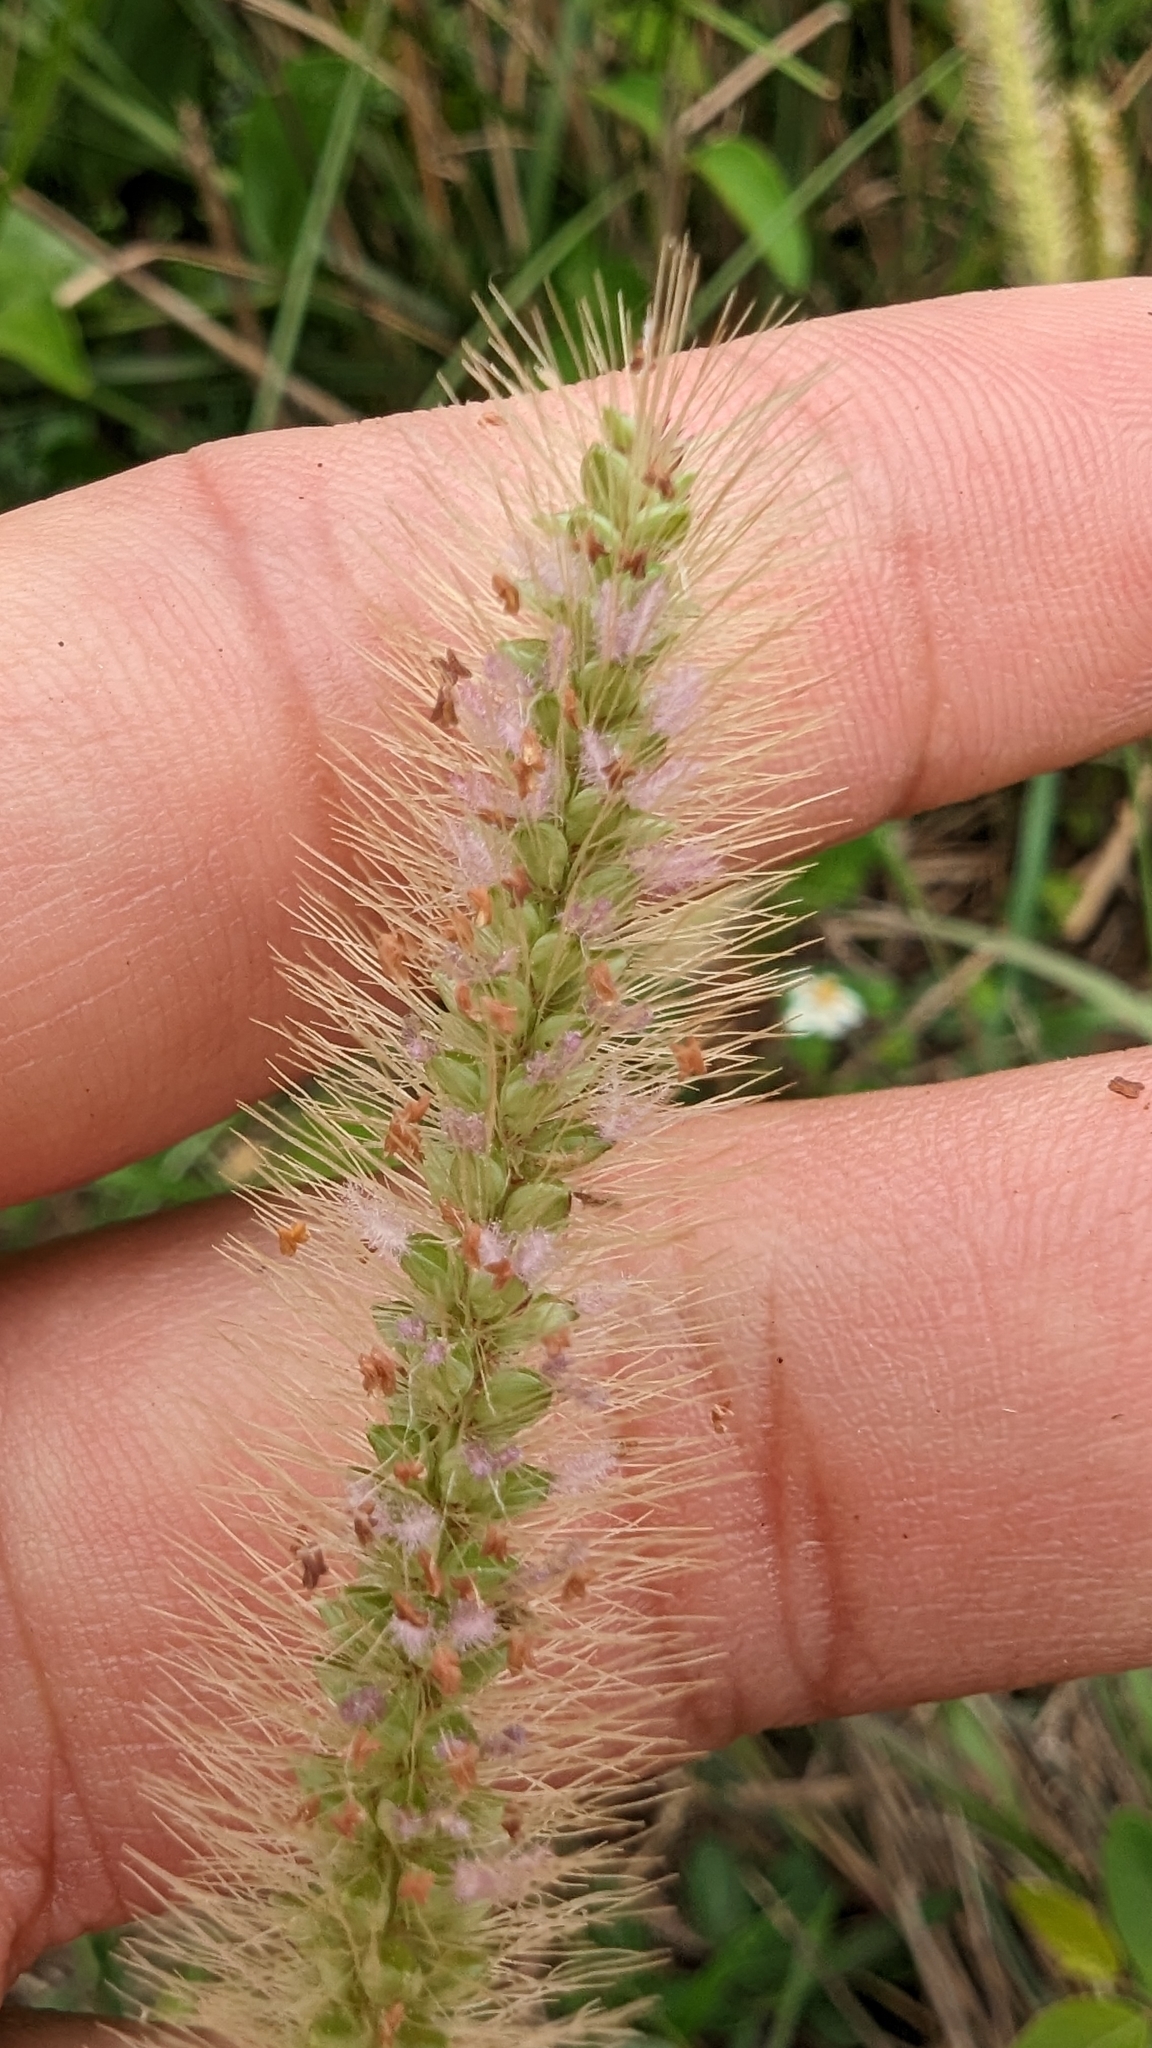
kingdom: Plantae
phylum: Tracheophyta
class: Liliopsida
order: Poales
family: Poaceae
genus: Setaria
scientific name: Setaria parviflora
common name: Knotroot bristle-grass
